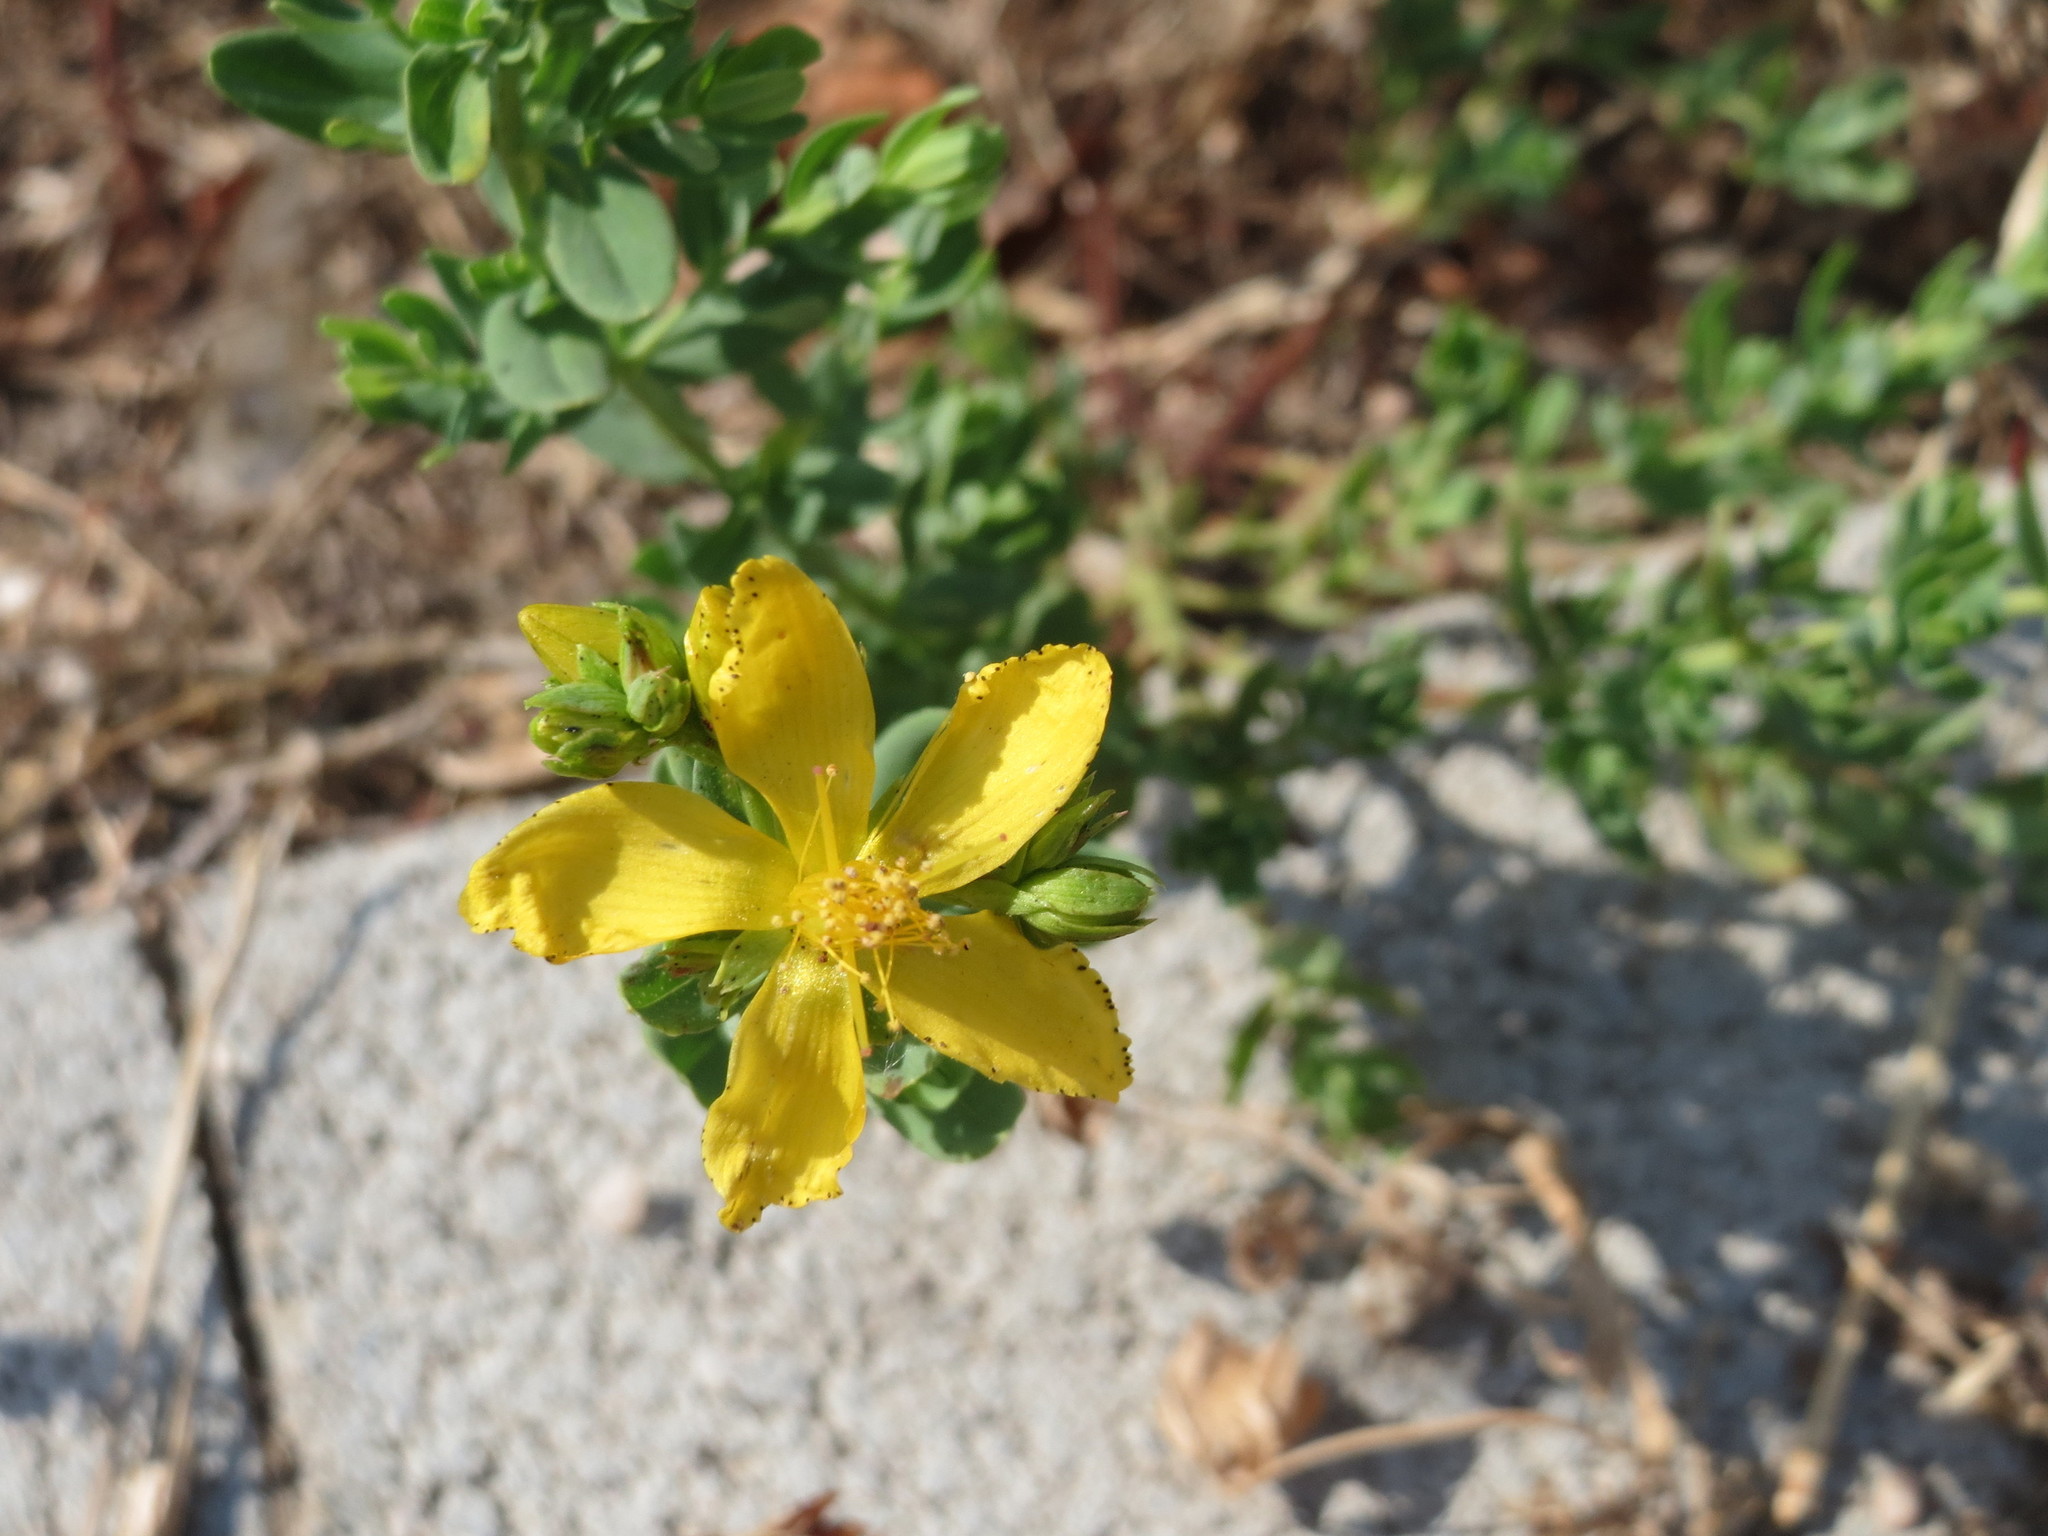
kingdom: Plantae
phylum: Tracheophyta
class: Magnoliopsida
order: Malpighiales
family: Hypericaceae
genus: Hypericum
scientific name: Hypericum perforatum
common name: Common st. johnswort
